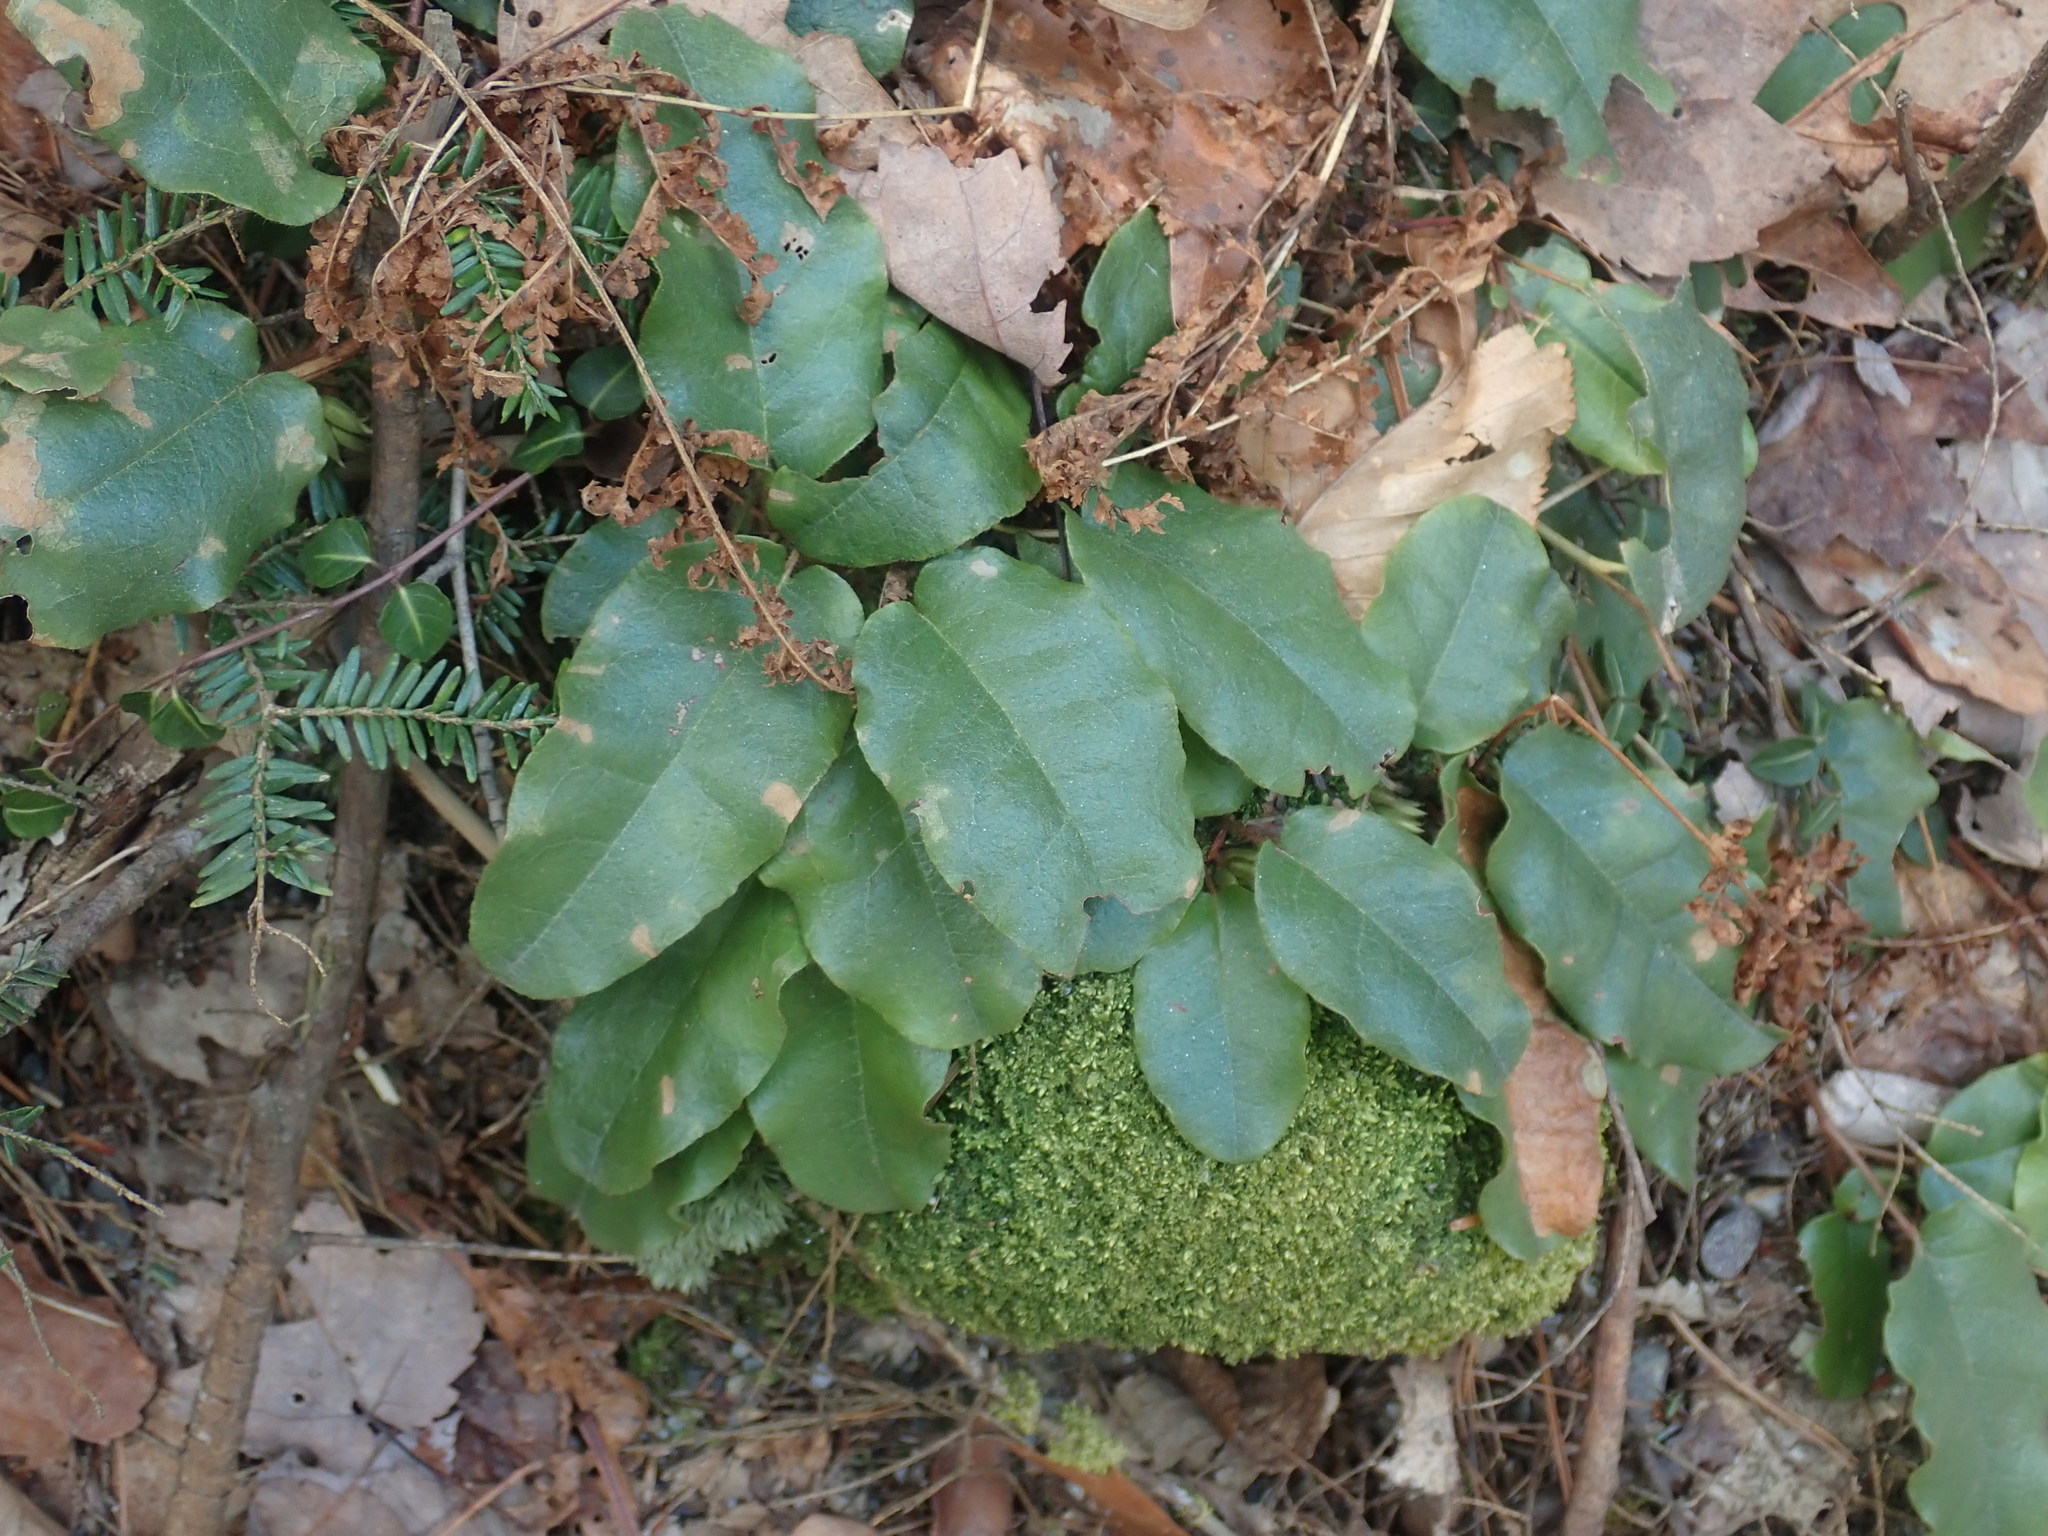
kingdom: Plantae
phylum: Tracheophyta
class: Magnoliopsida
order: Ericales
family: Ericaceae
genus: Epigaea
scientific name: Epigaea repens
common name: Gravelroot
